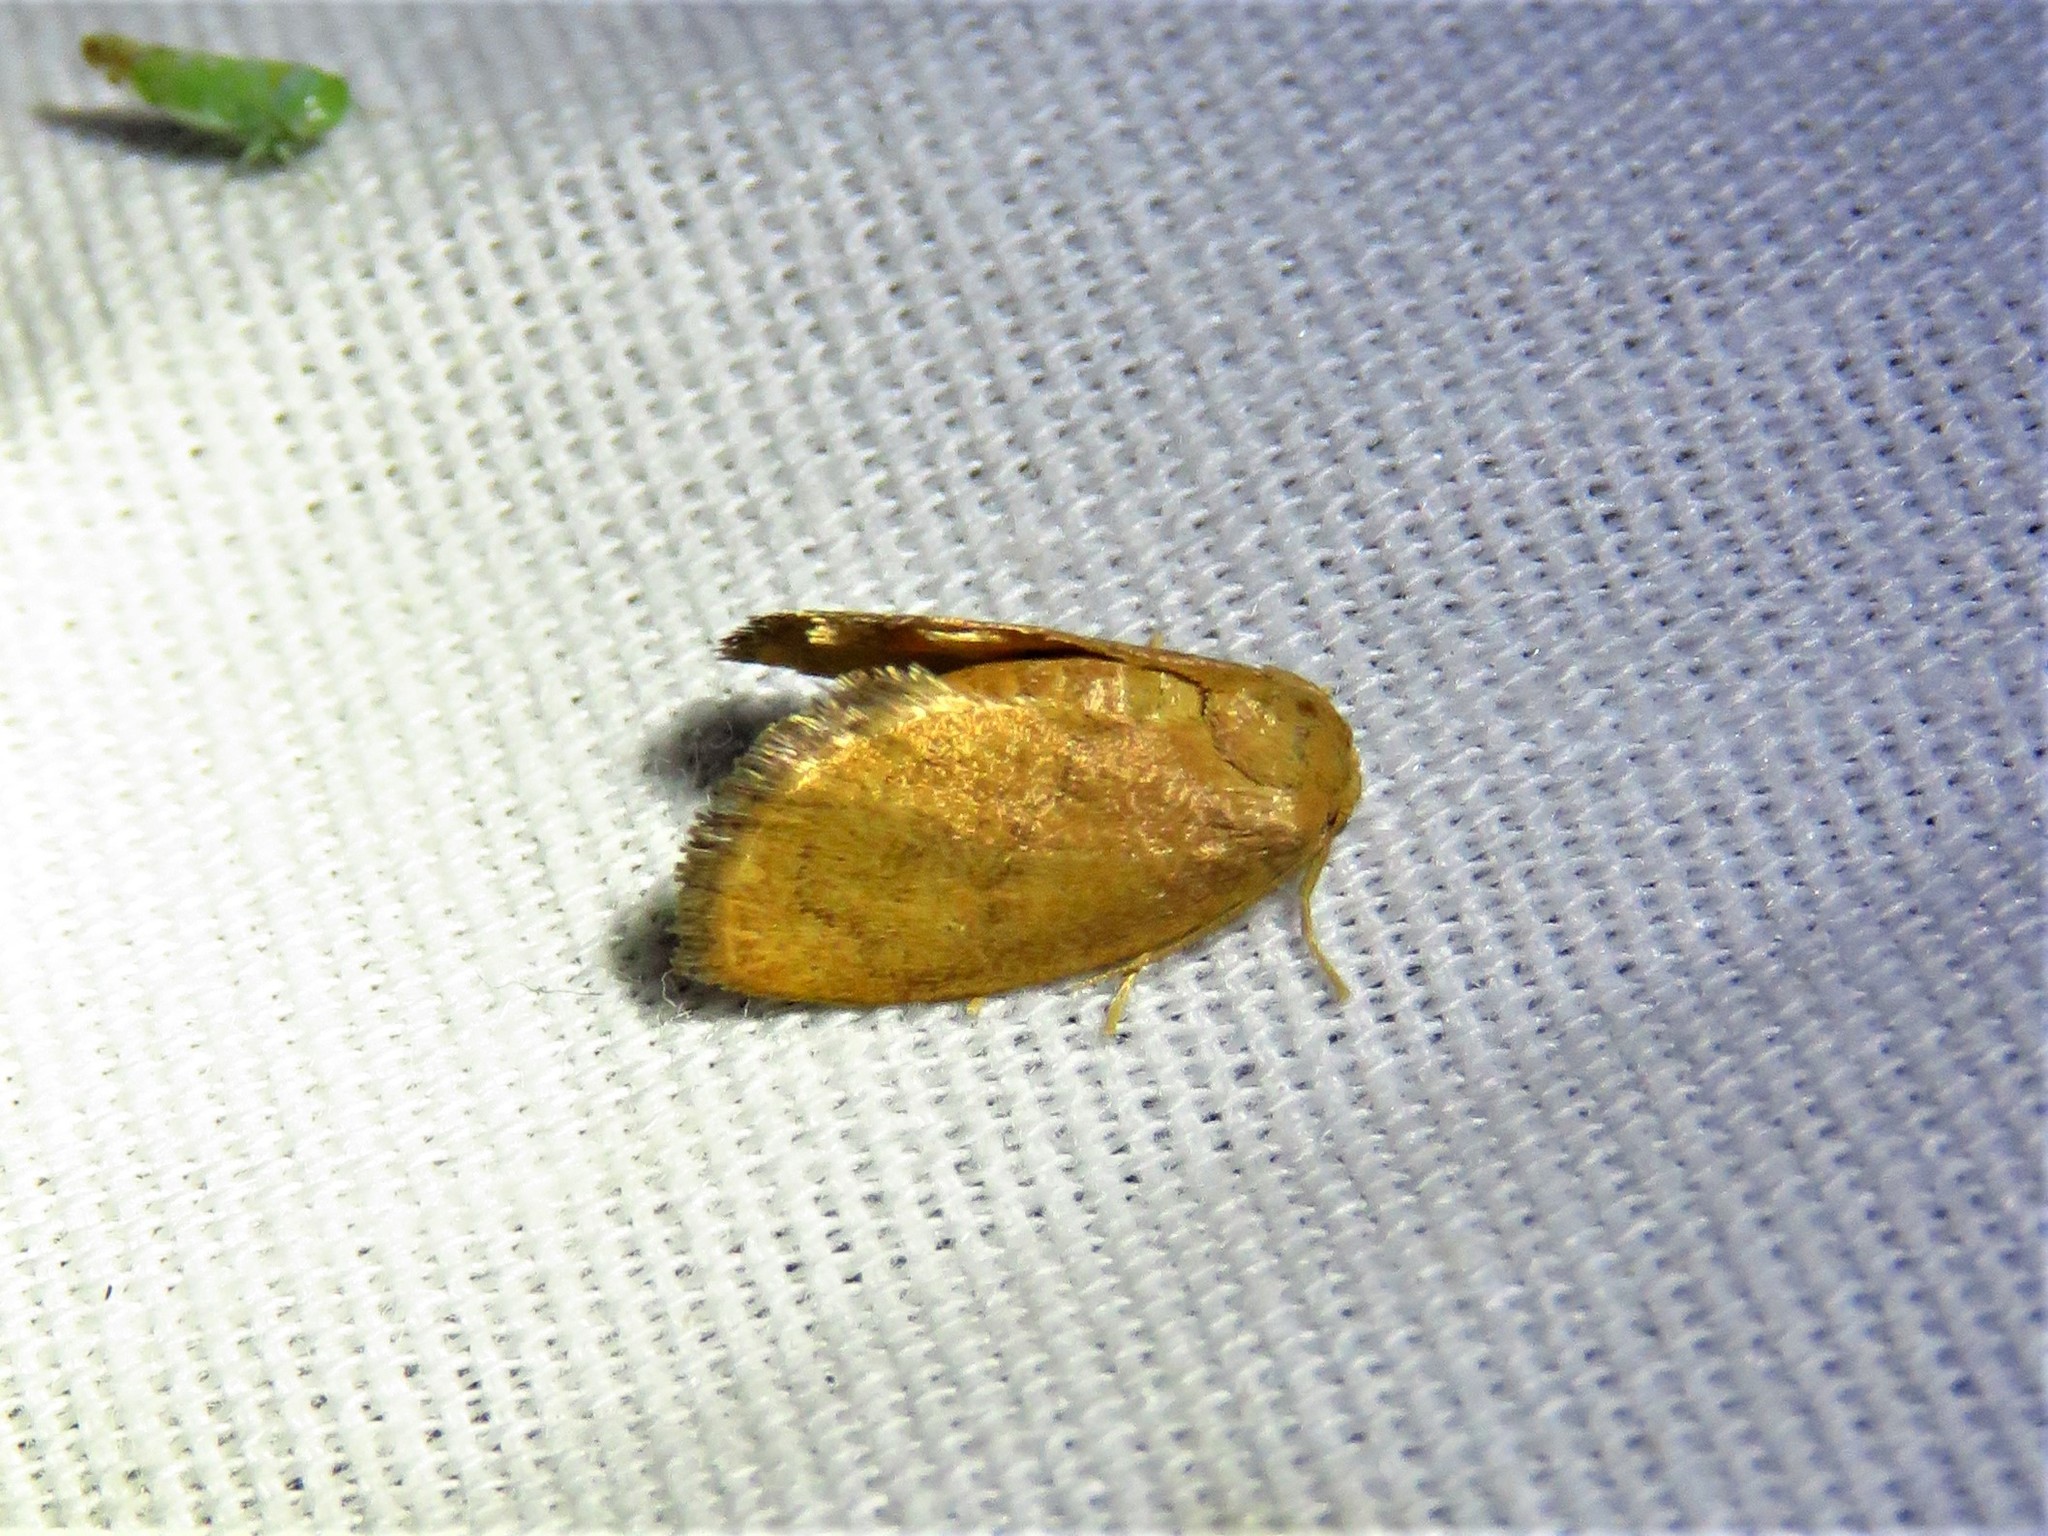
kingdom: Animalia
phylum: Arthropoda
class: Insecta
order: Lepidoptera
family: Limacodidae
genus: Heterogenea
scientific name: Heterogenea shurtleffi
